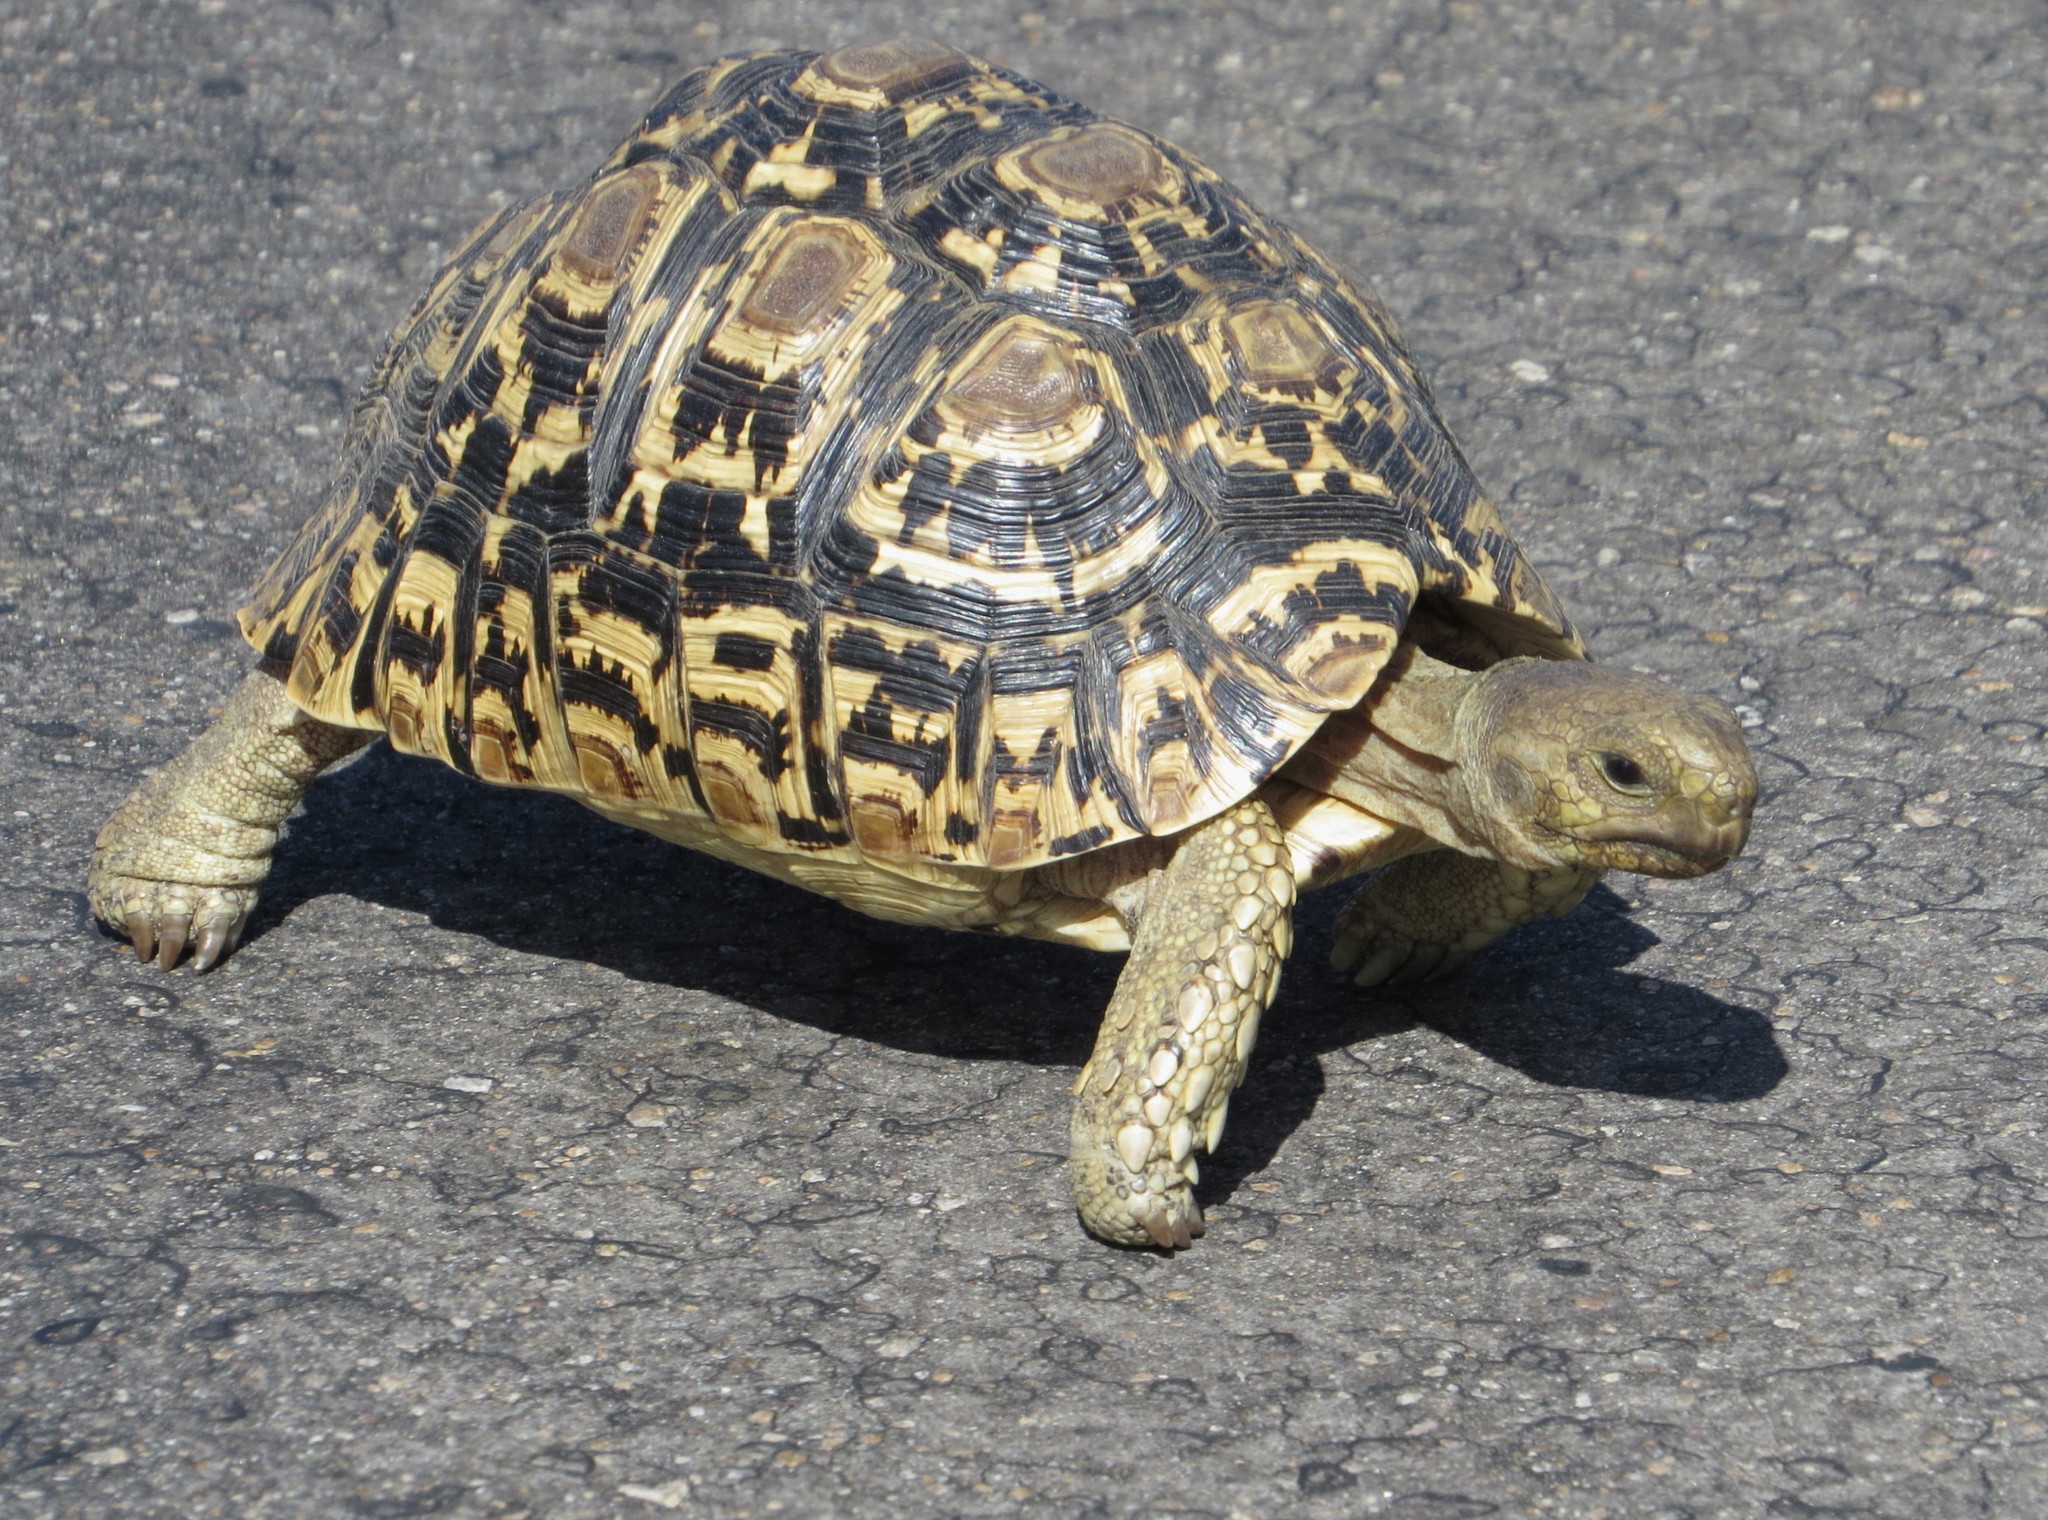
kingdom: Animalia
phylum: Chordata
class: Testudines
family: Testudinidae
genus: Stigmochelys
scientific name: Stigmochelys pardalis
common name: Leopard tortoise
